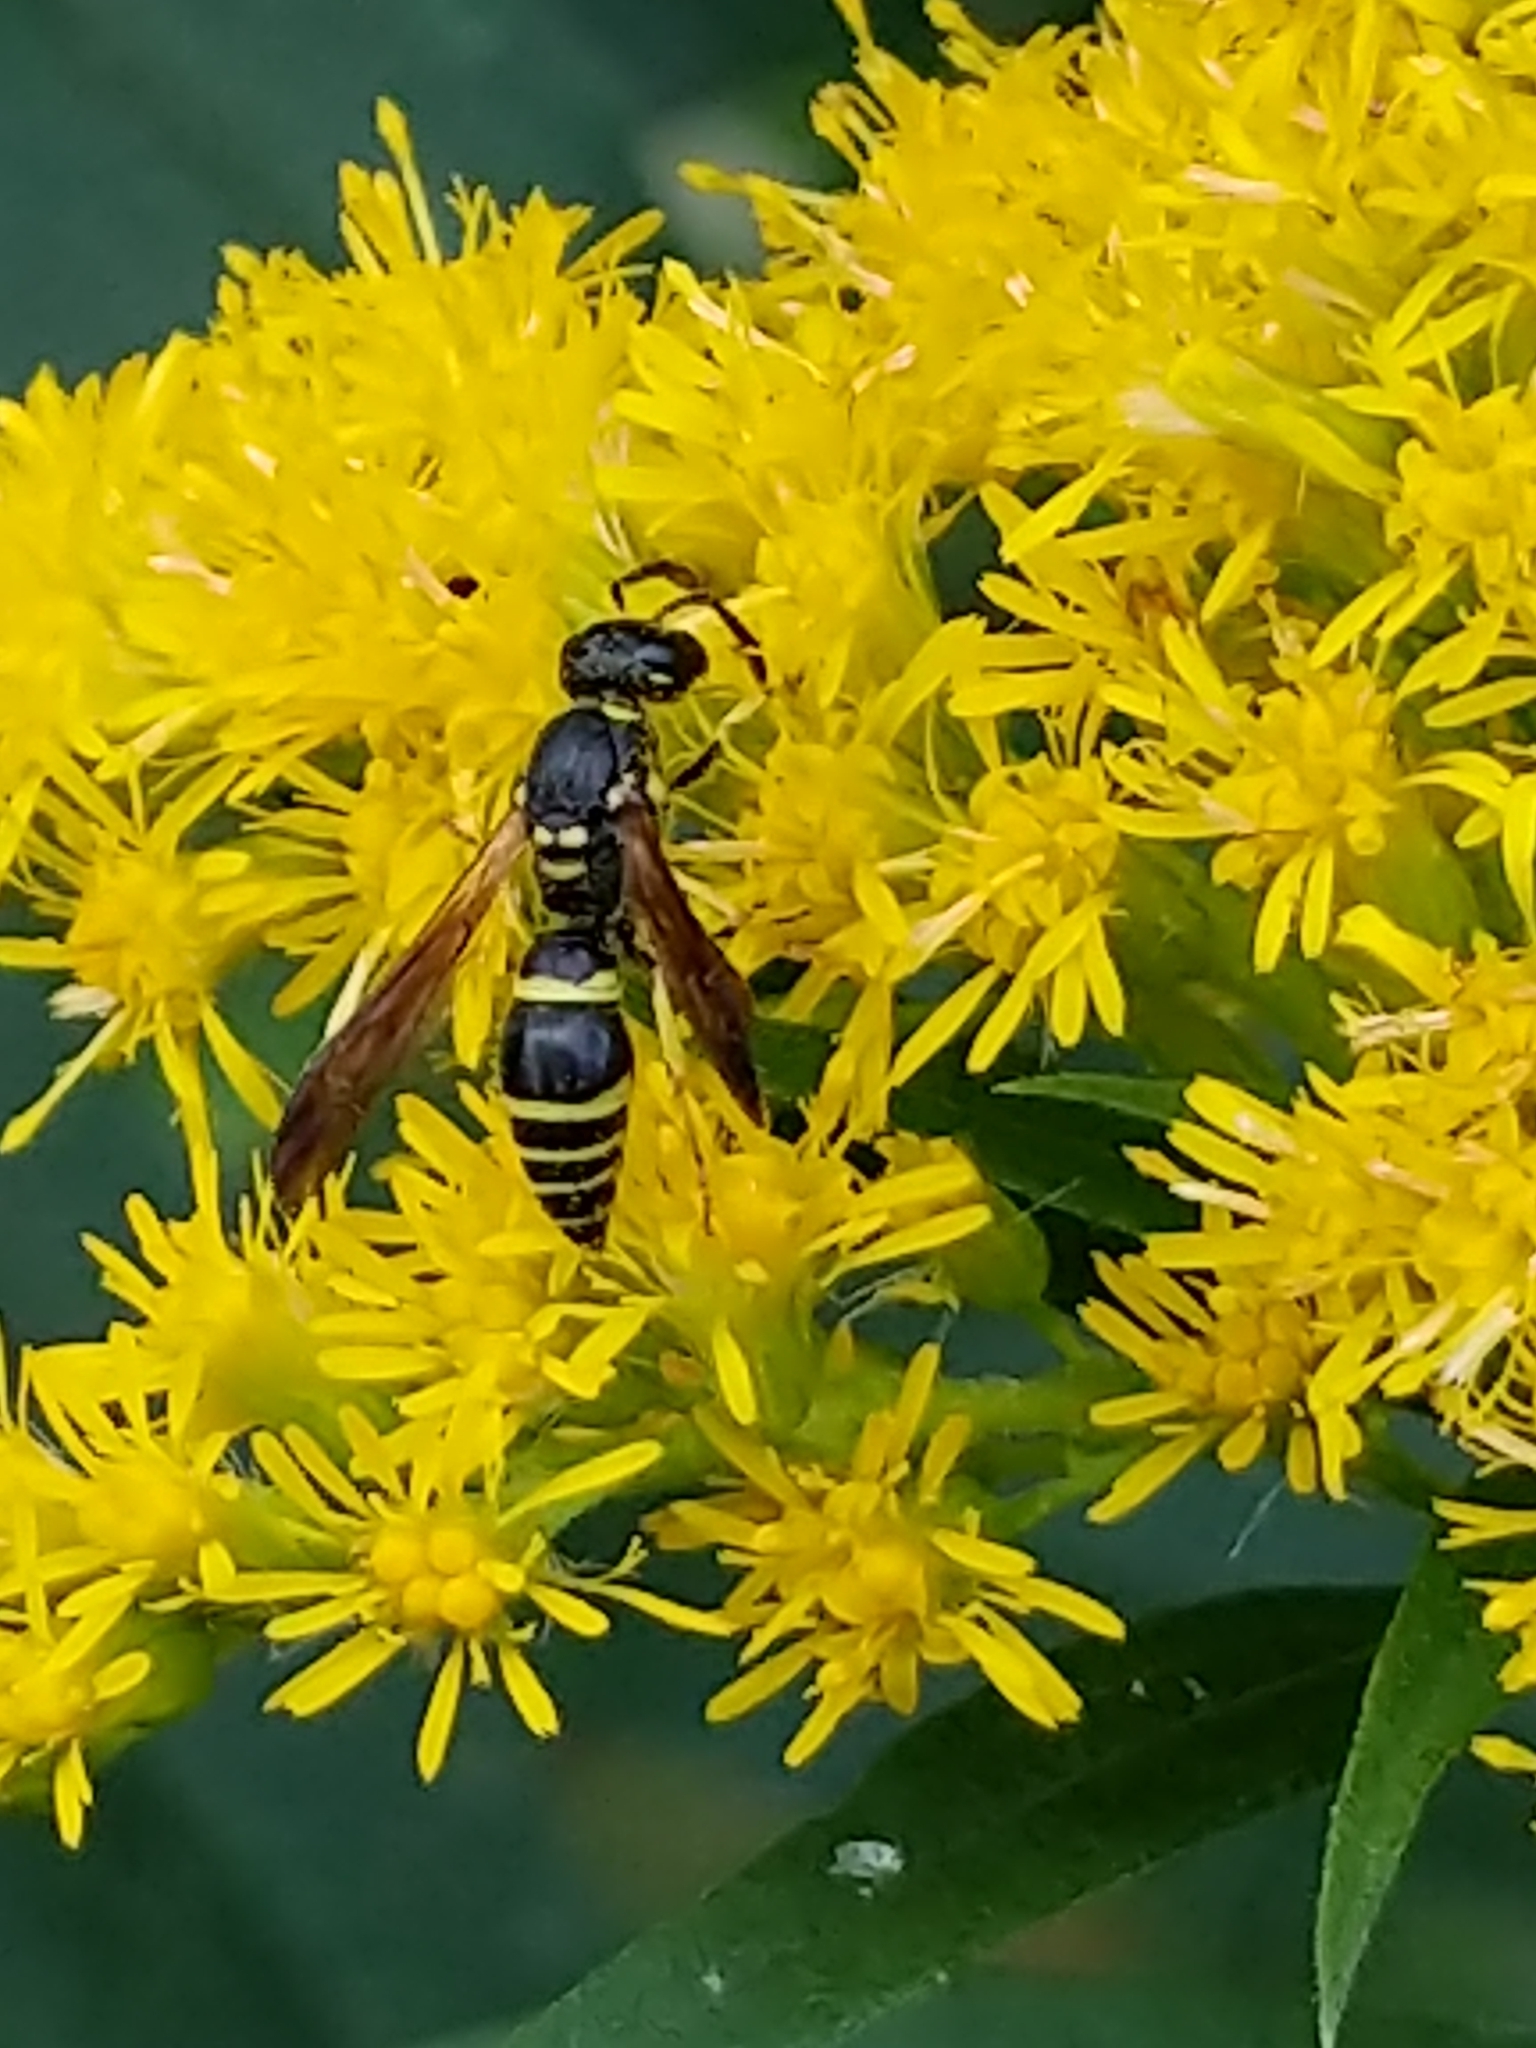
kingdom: Animalia
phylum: Arthropoda
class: Insecta
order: Hymenoptera
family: Vespidae
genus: Ancistrocerus
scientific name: Ancistrocerus adiabatus
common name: Bramble mason wasp
